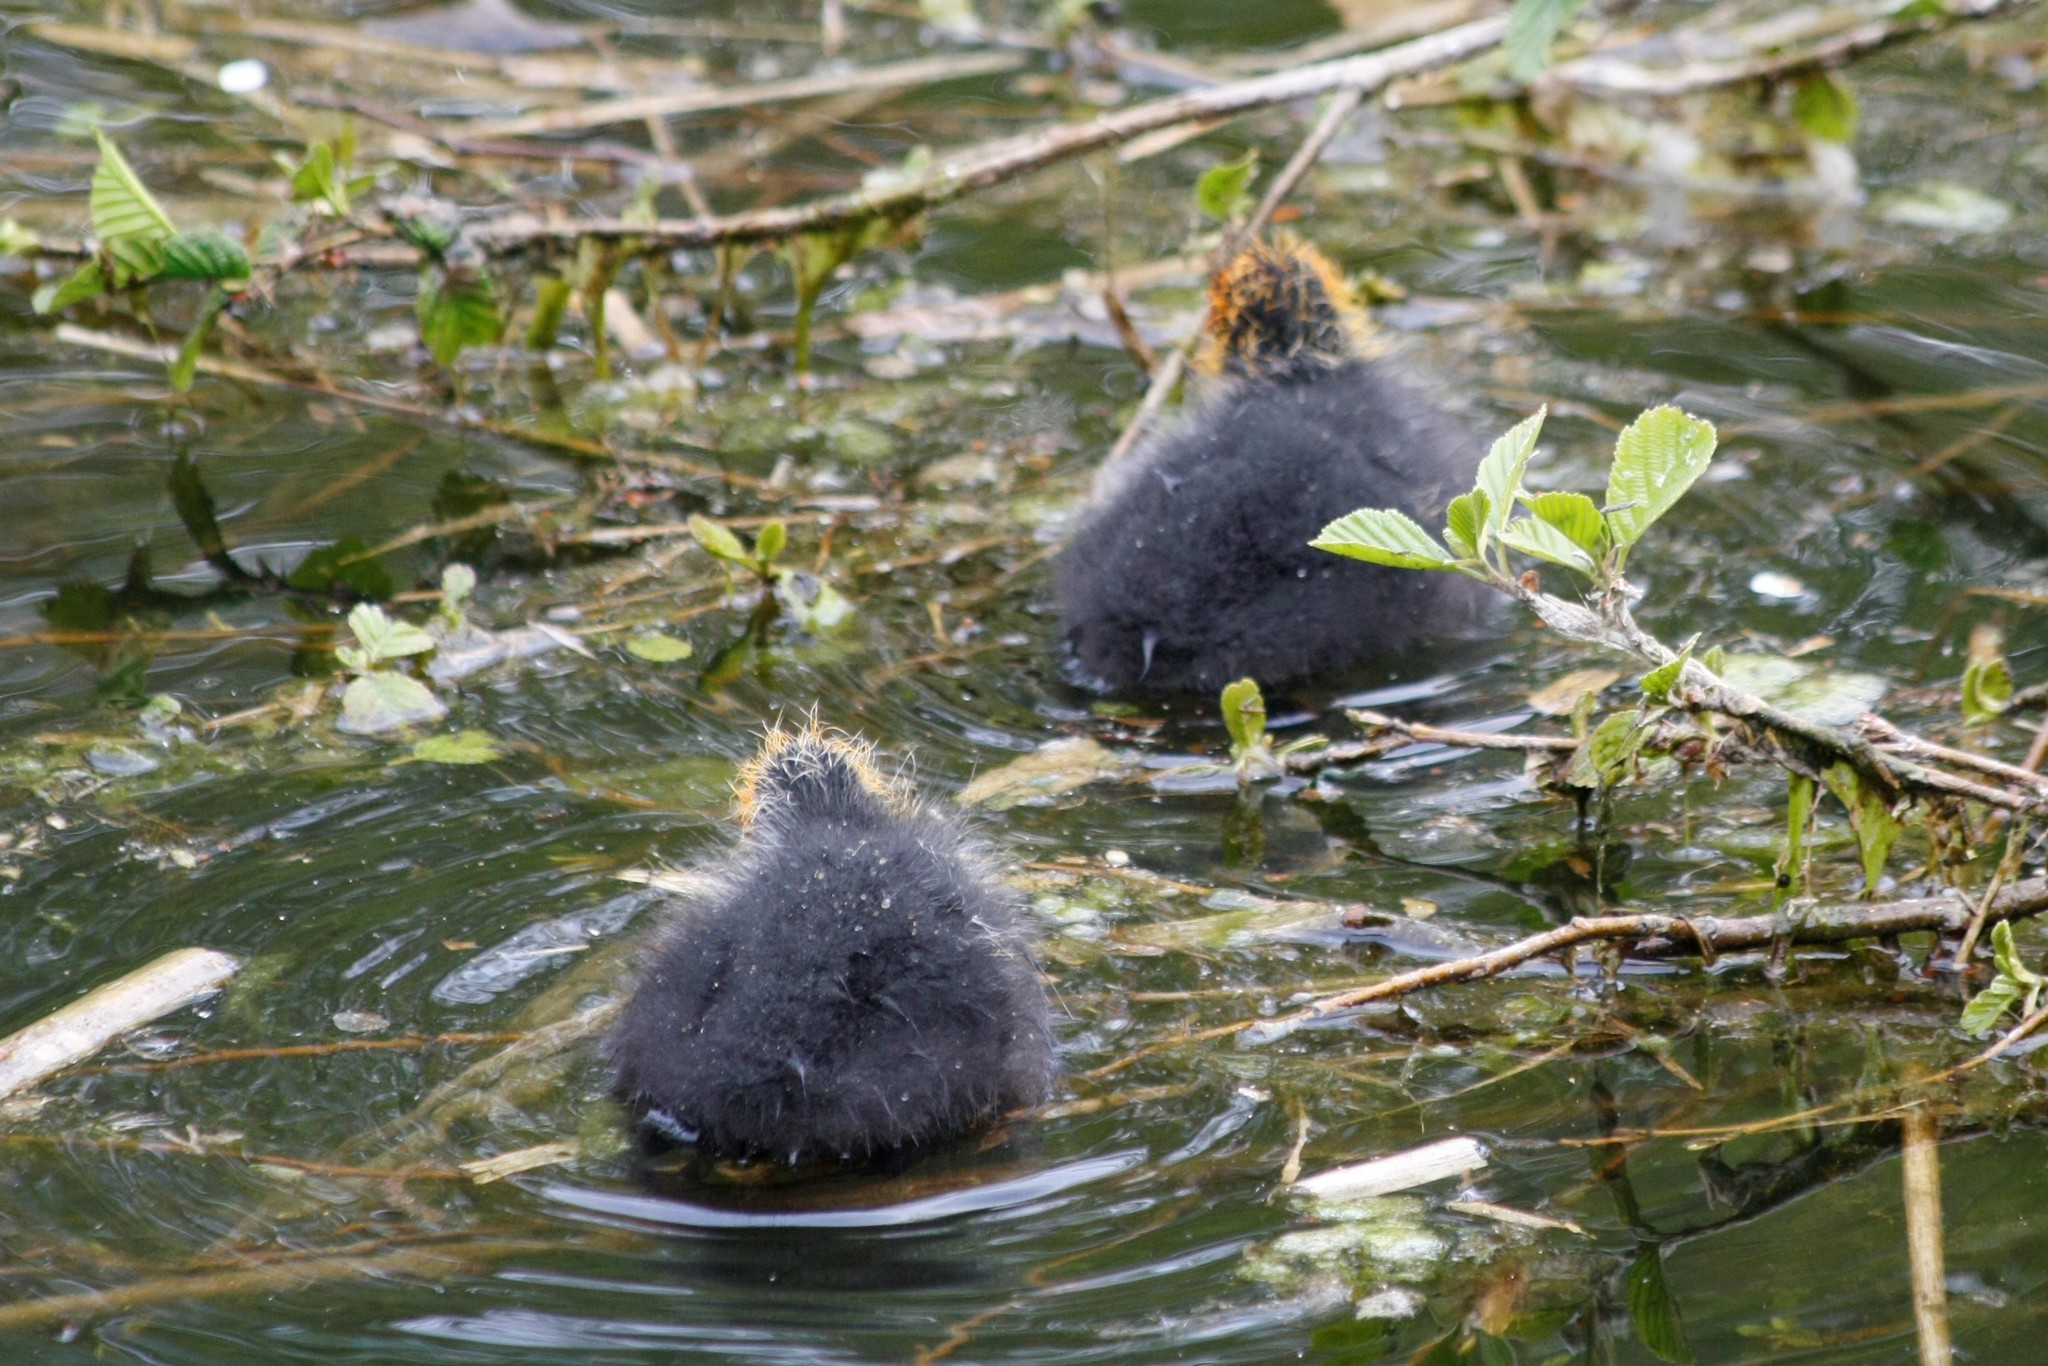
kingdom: Animalia
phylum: Chordata
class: Aves
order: Gruiformes
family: Rallidae
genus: Fulica
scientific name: Fulica atra
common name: Eurasian coot
